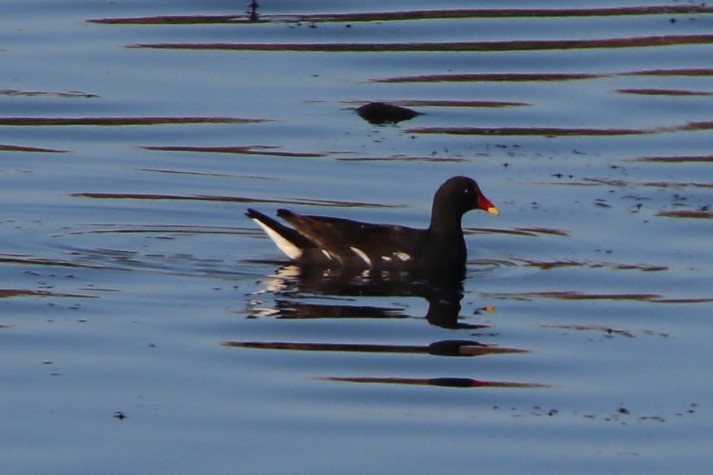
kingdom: Animalia
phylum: Chordata
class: Aves
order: Gruiformes
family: Rallidae
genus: Gallinula
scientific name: Gallinula chloropus
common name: Common moorhen
